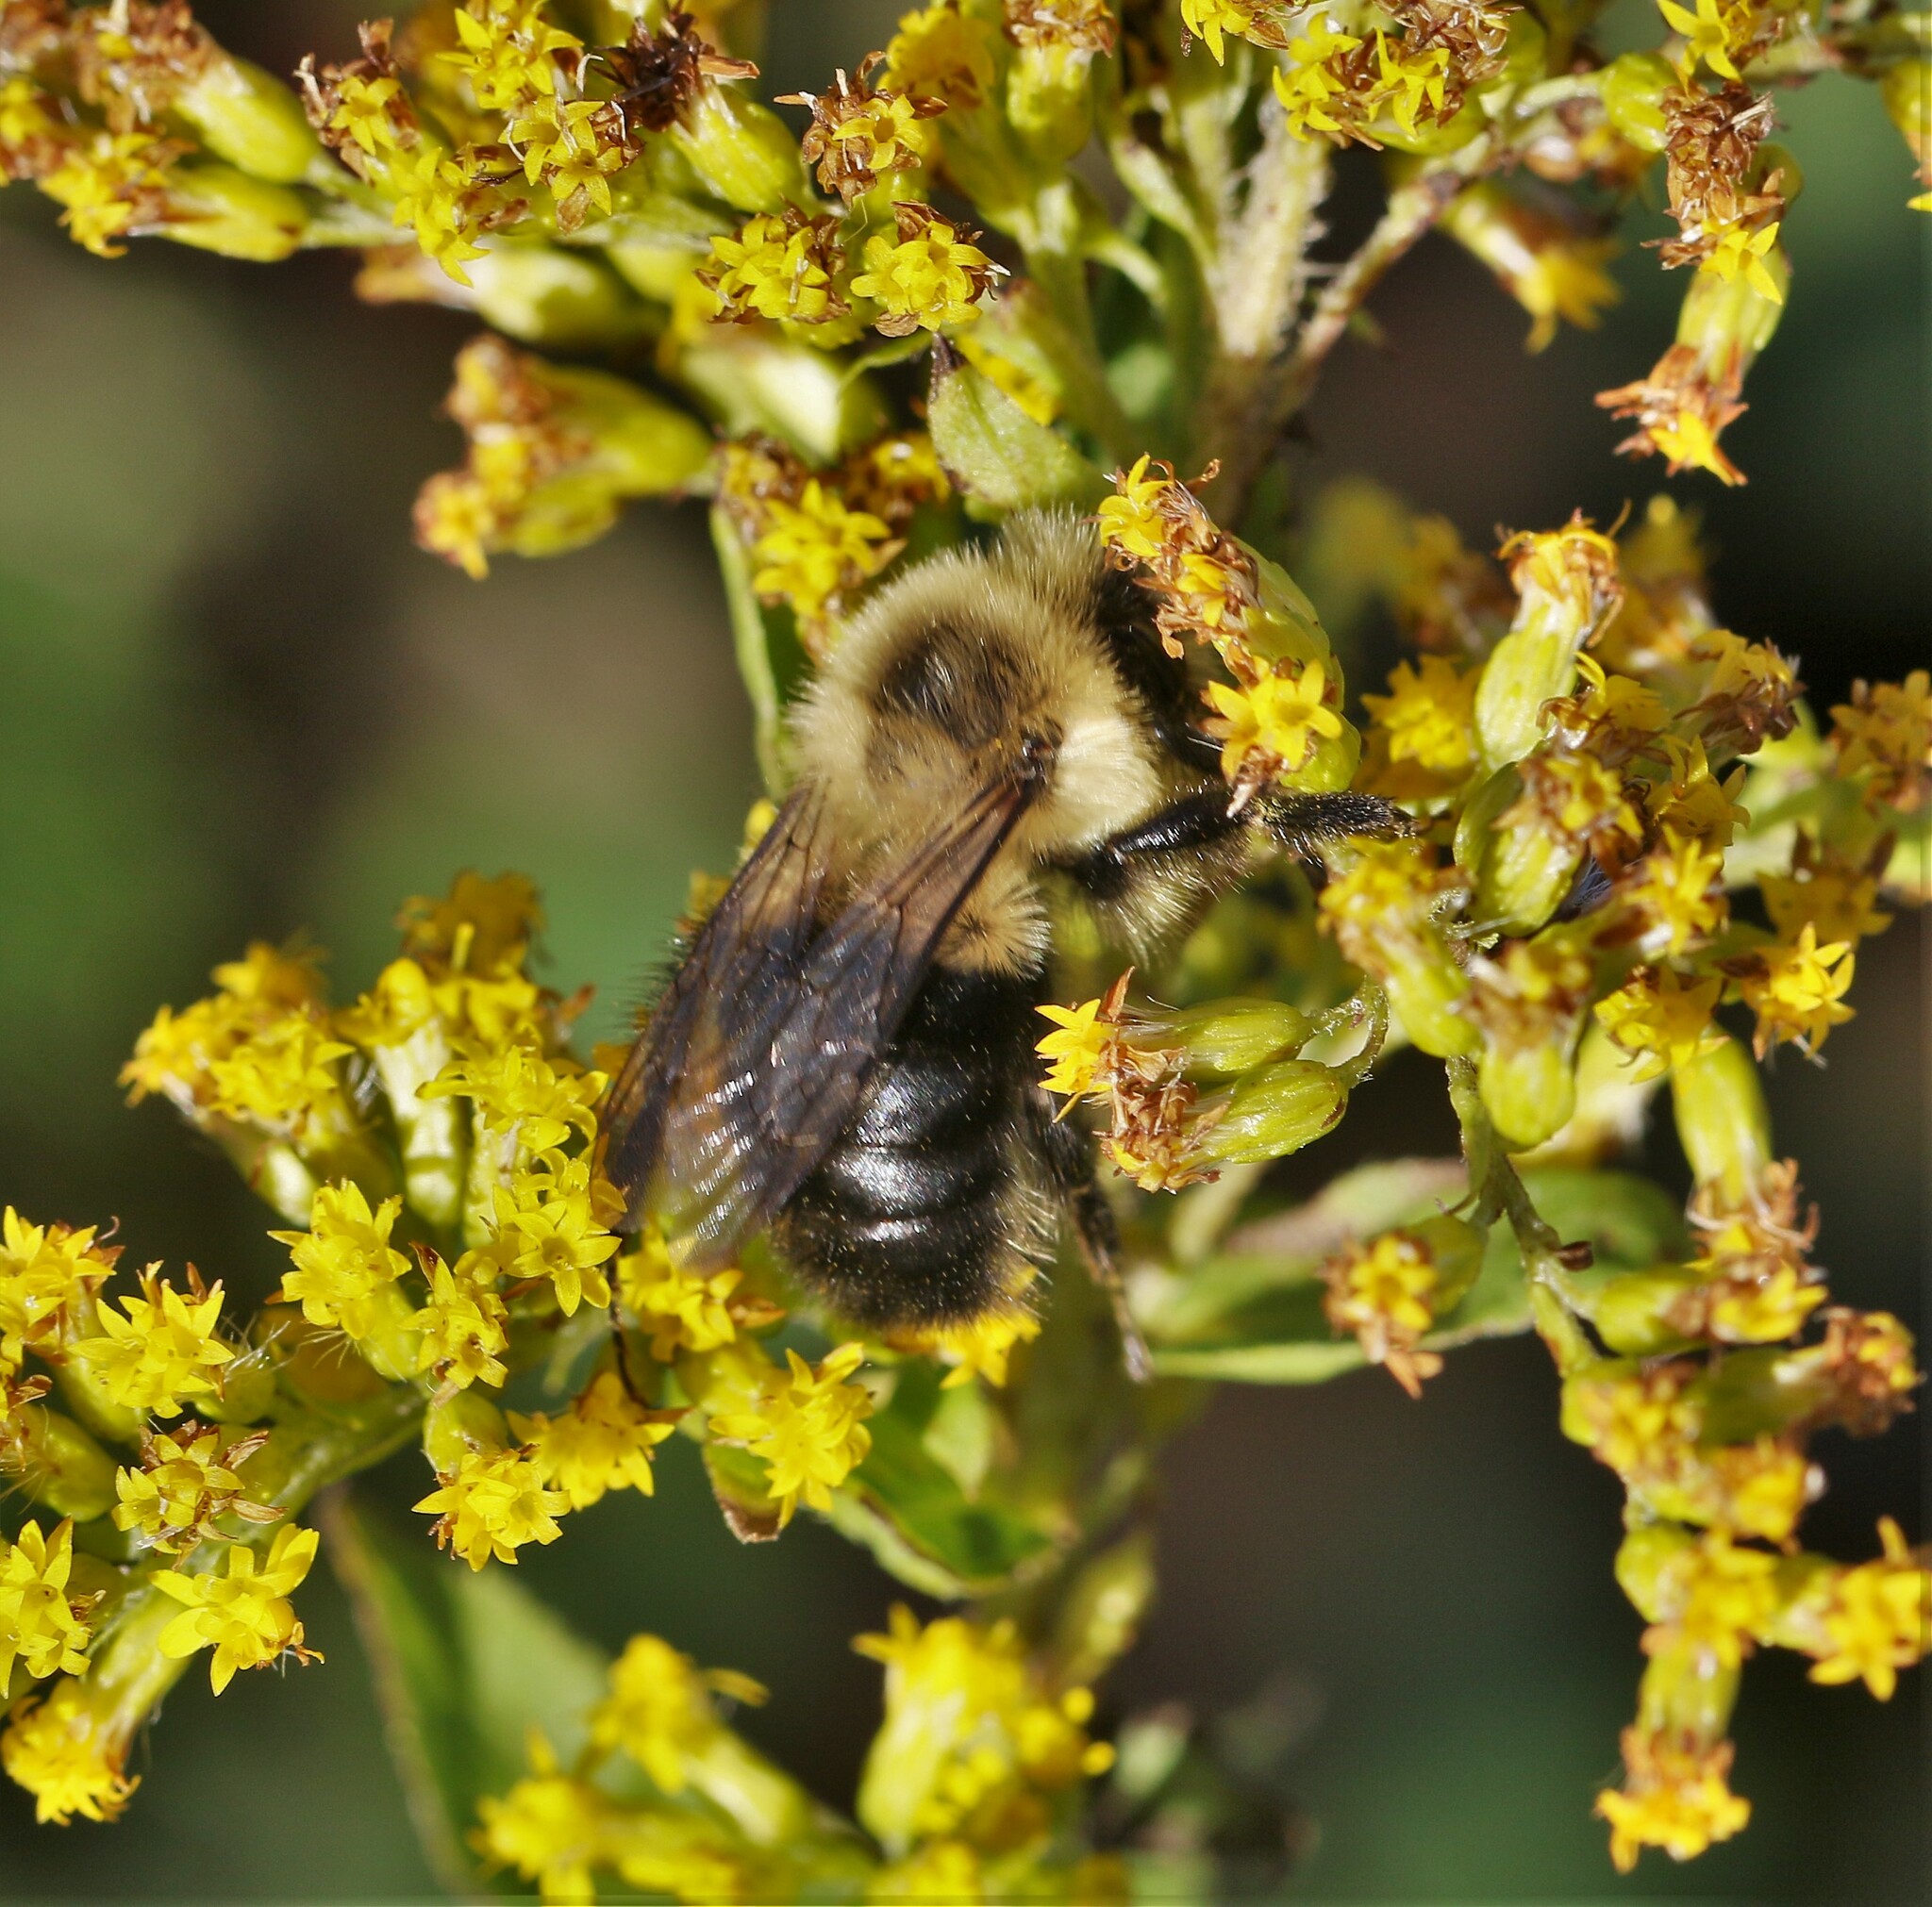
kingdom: Animalia
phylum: Arthropoda
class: Insecta
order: Hymenoptera
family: Apidae
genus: Bombus
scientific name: Bombus impatiens
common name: Common eastern bumble bee
